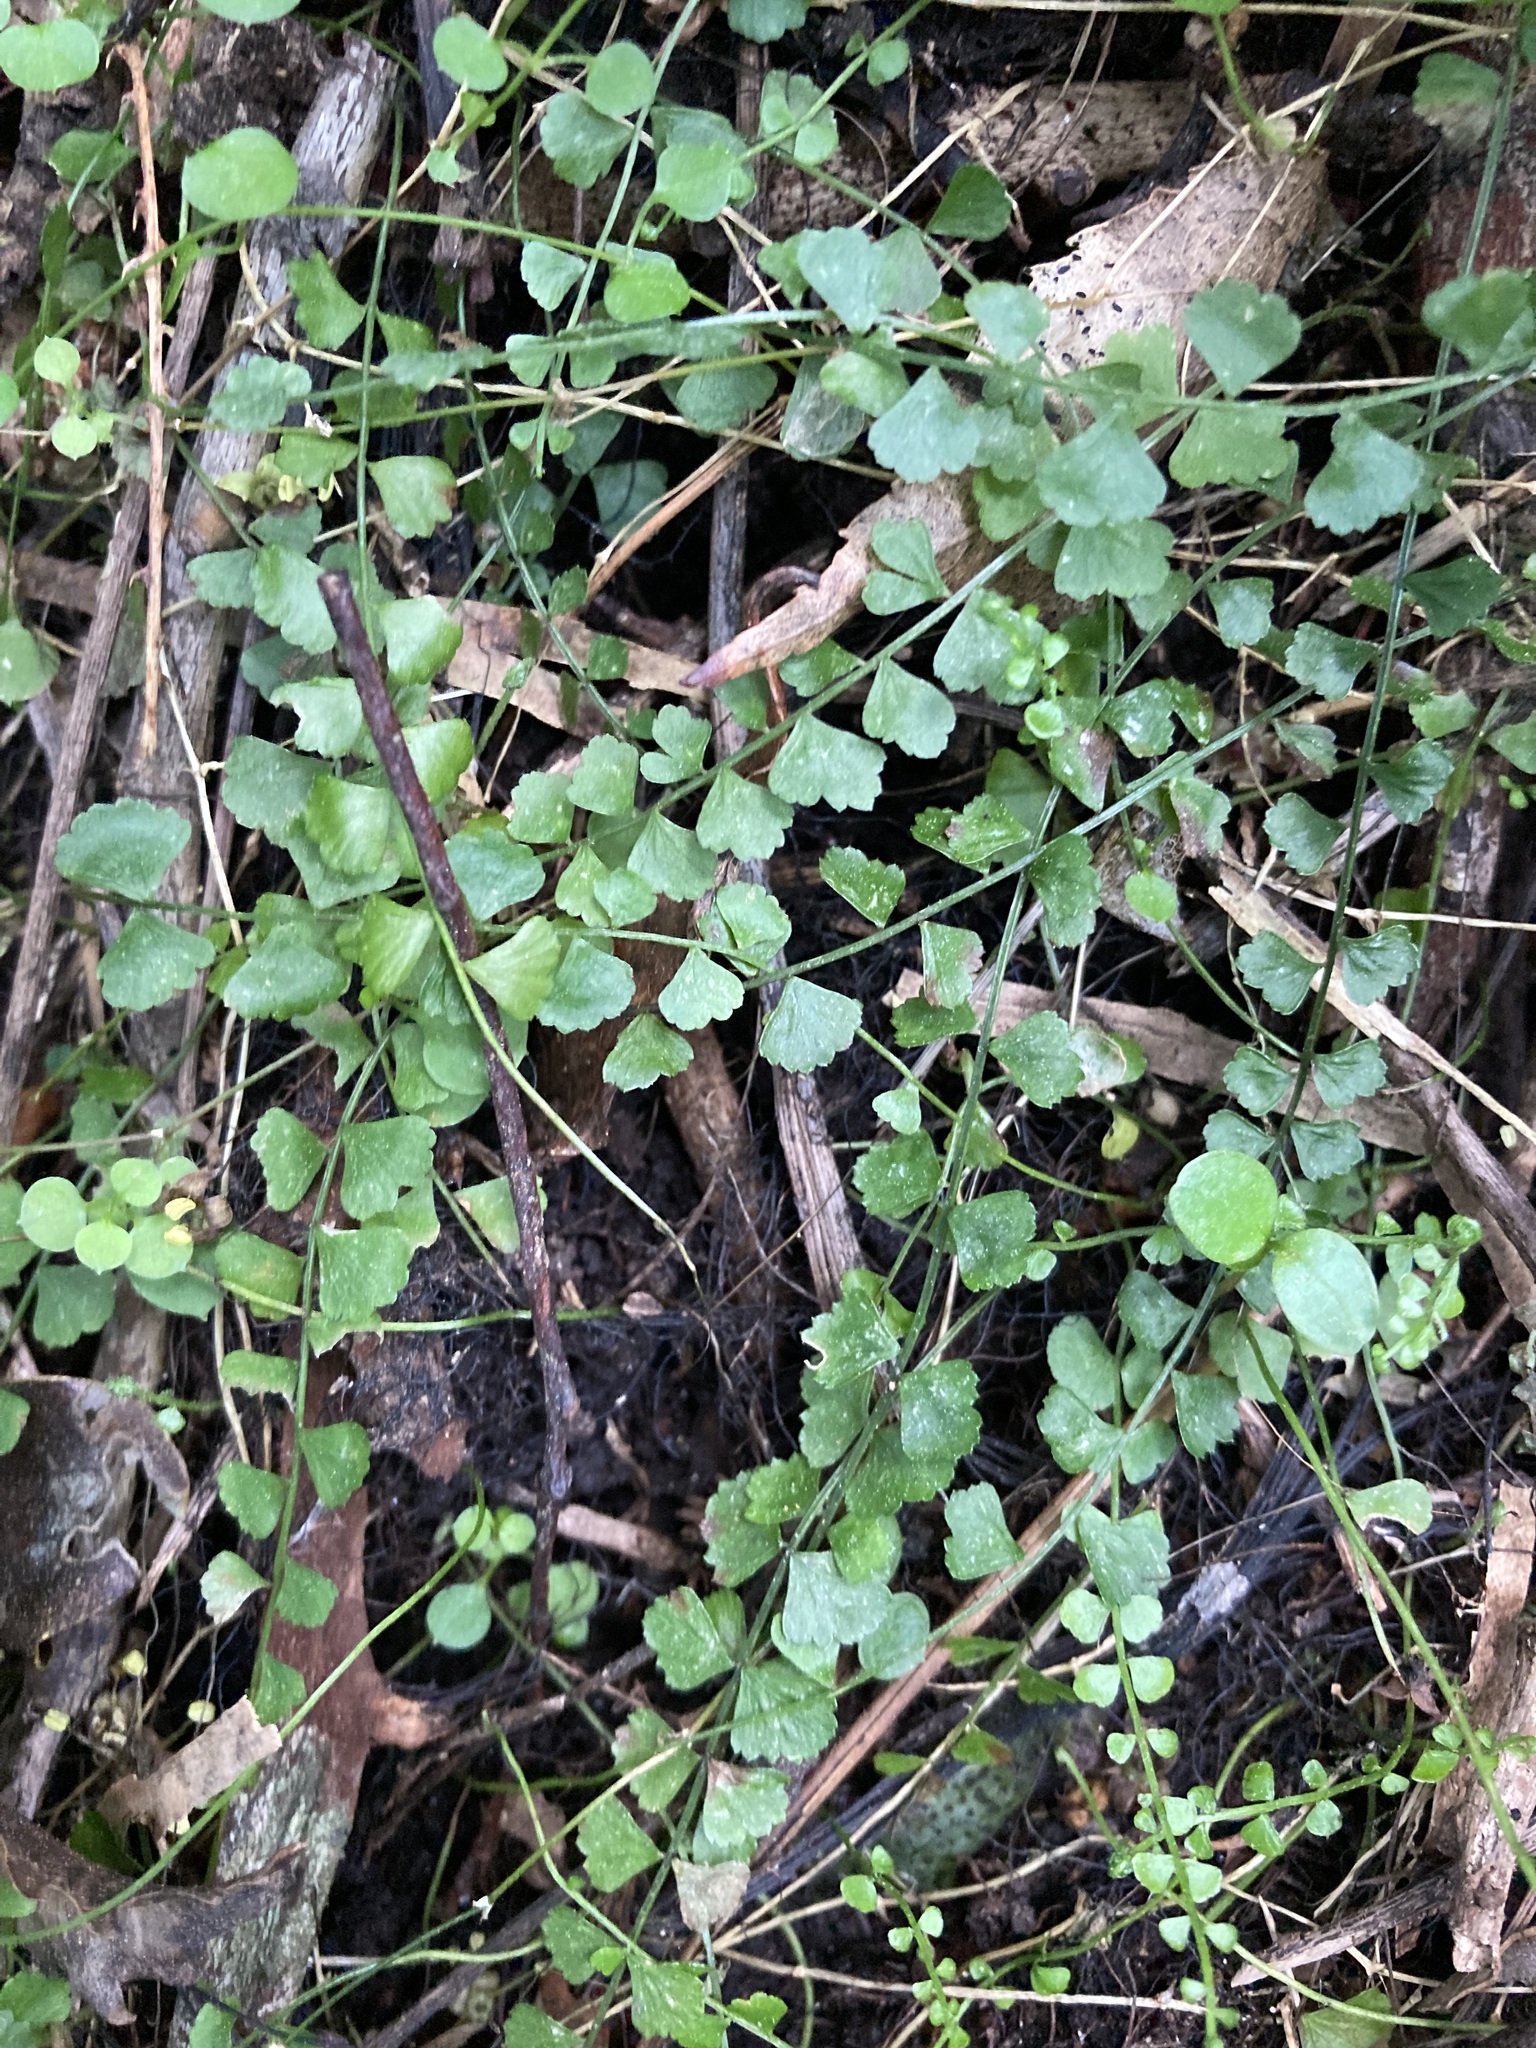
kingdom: Plantae
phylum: Tracheophyta
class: Polypodiopsida
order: Polypodiales
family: Aspleniaceae
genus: Asplenium
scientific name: Asplenium flabellifolium
